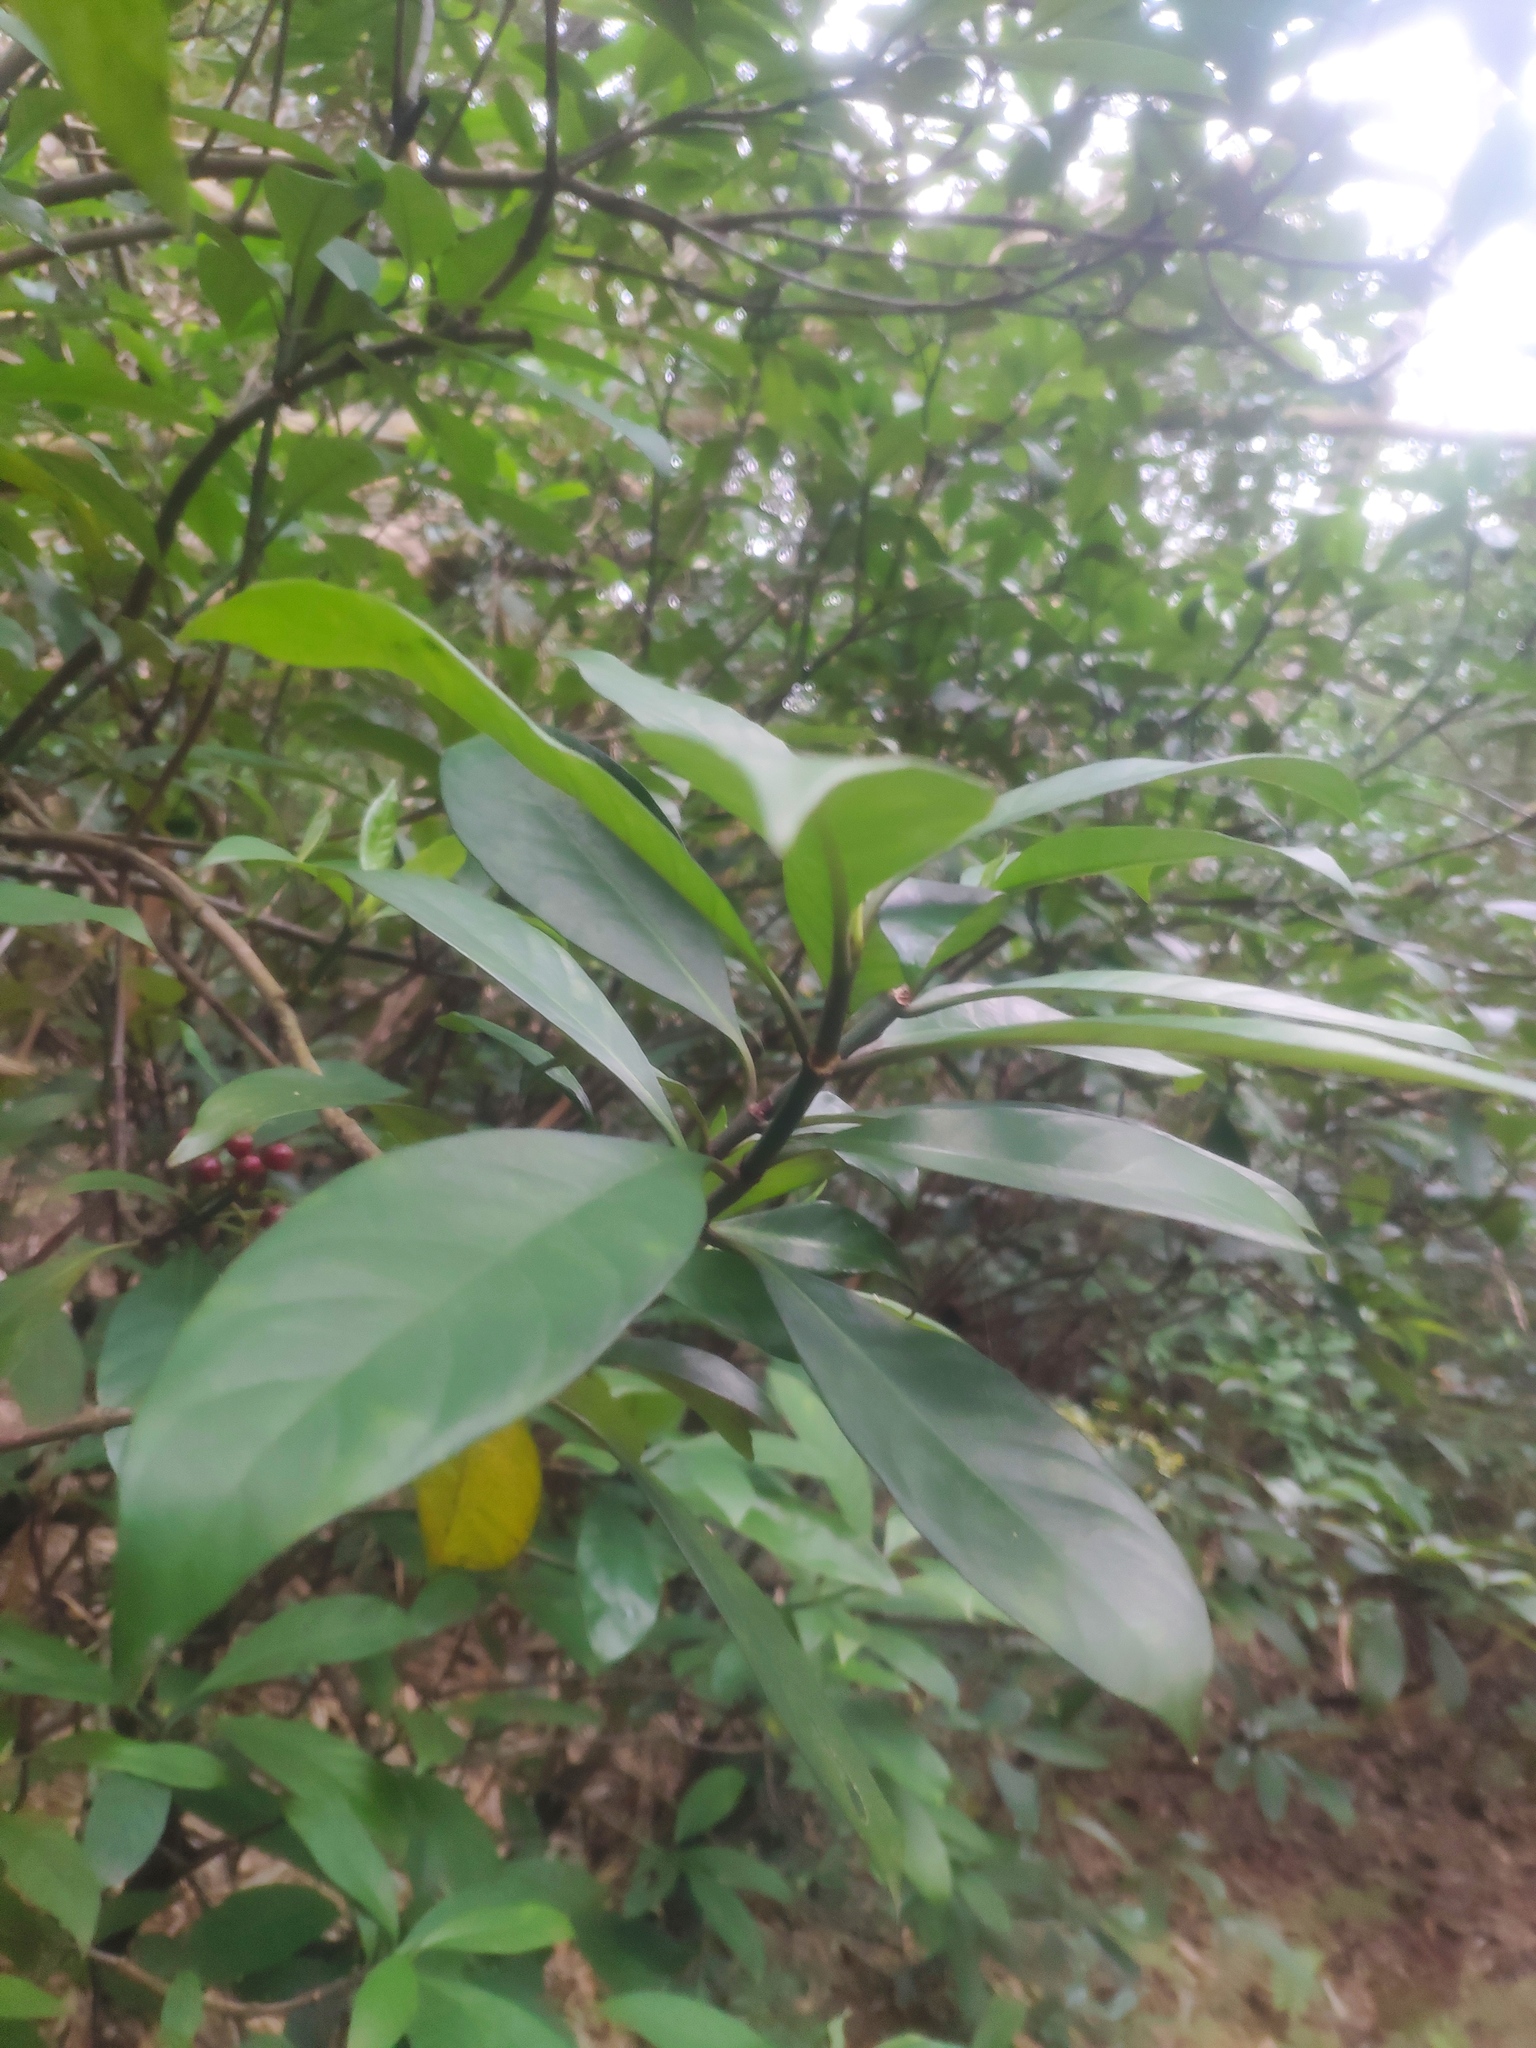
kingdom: Plantae
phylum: Tracheophyta
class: Magnoliopsida
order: Gentianales
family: Rubiaceae
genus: Psychotria
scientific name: Psychotria asiatica
